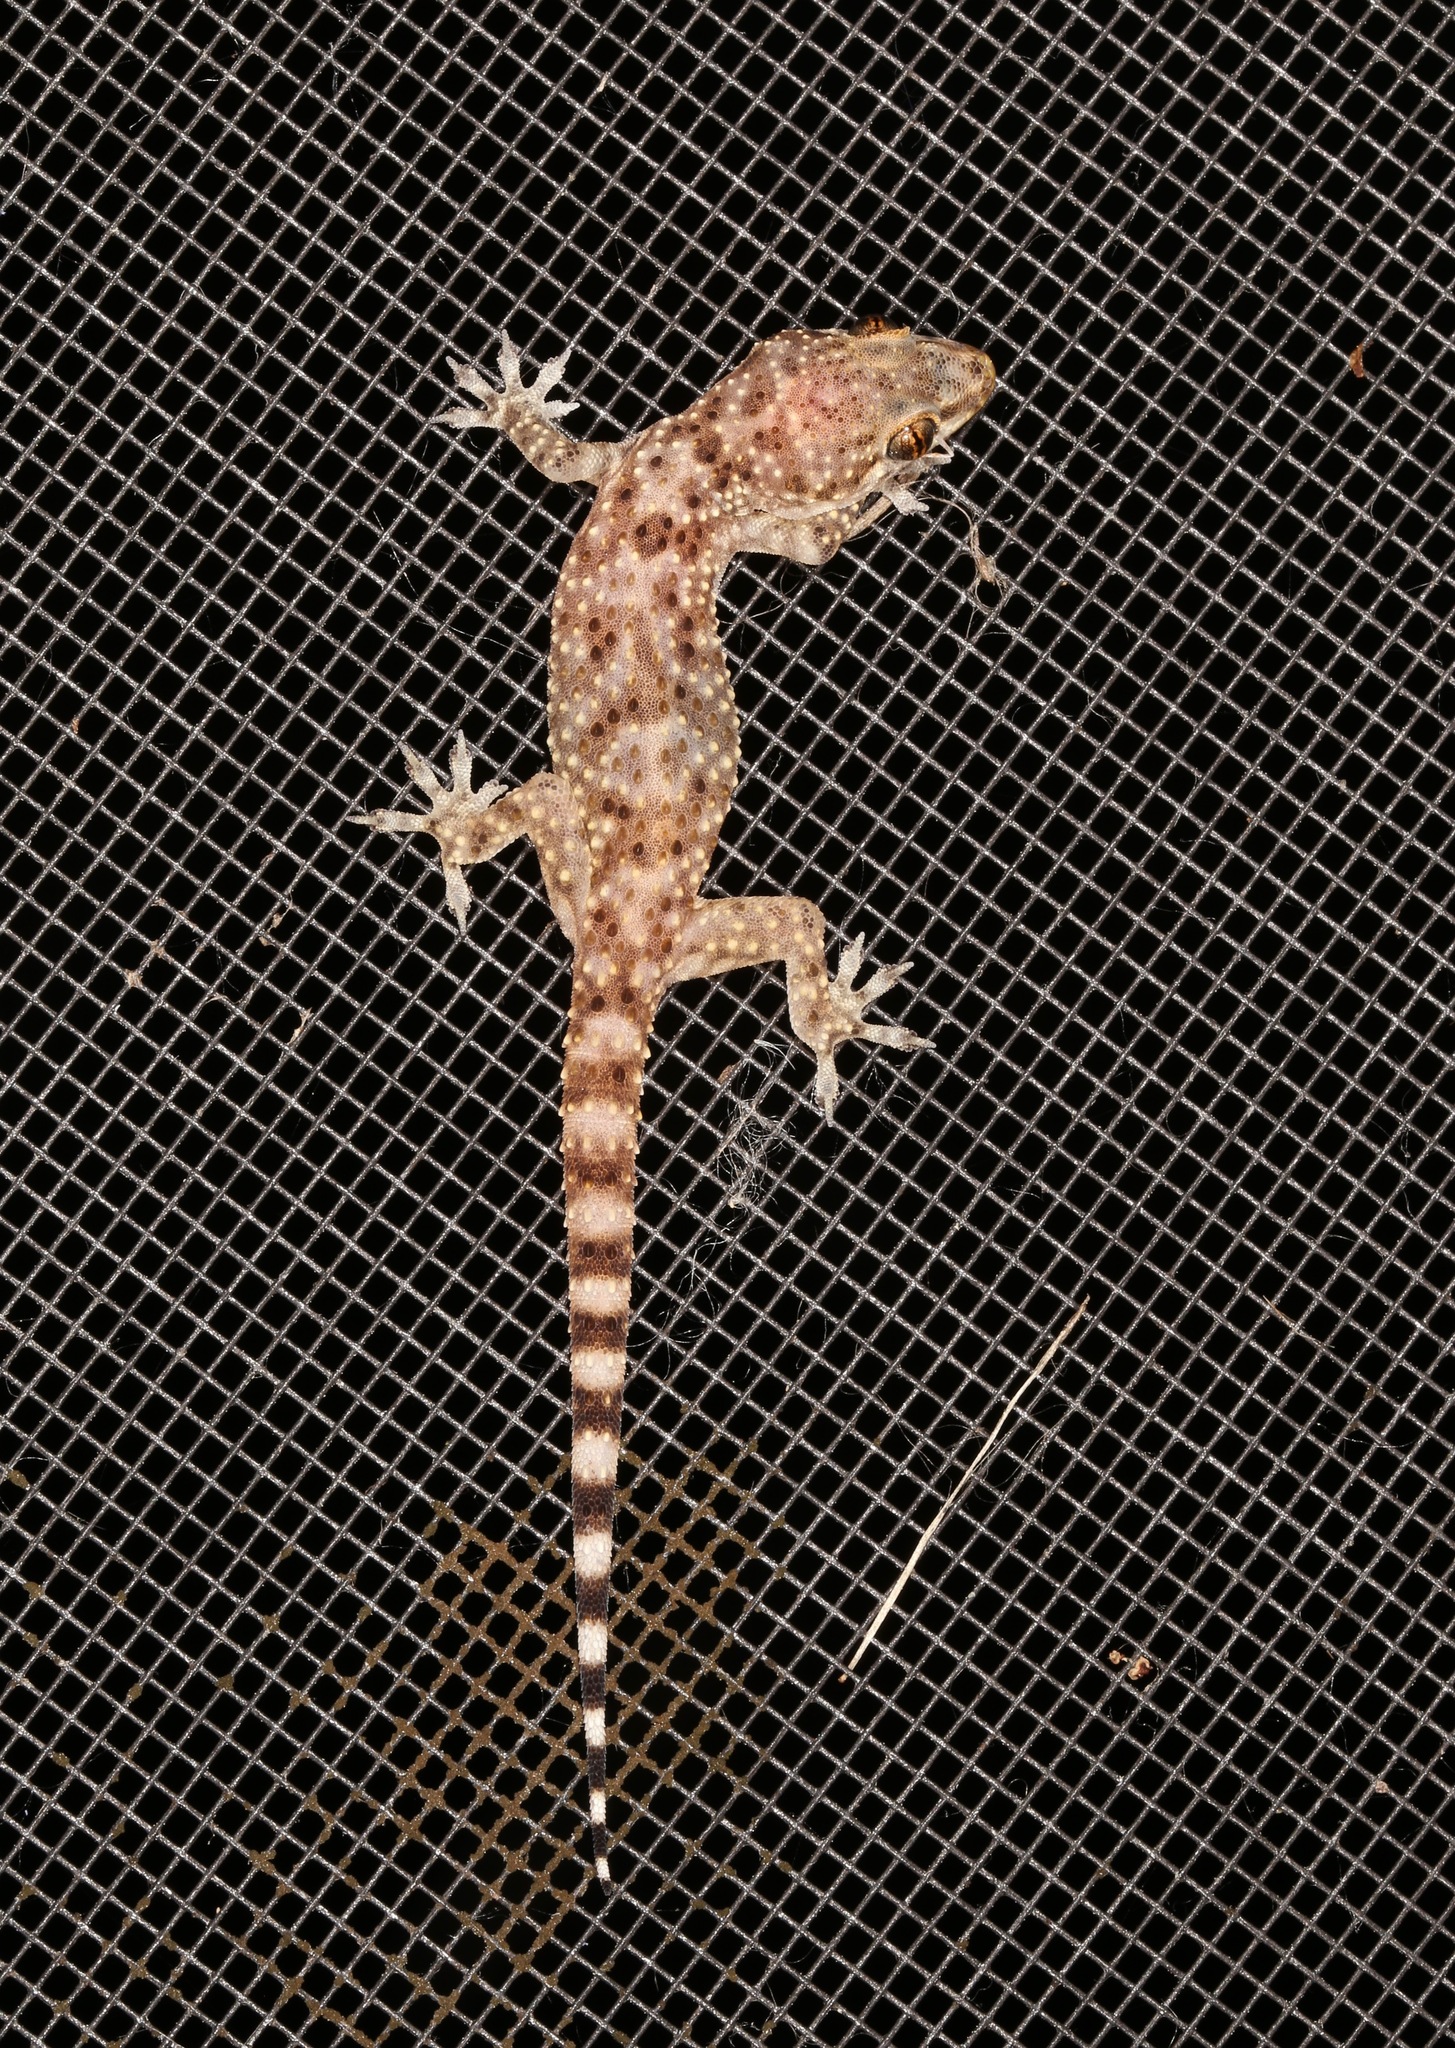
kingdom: Animalia
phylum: Chordata
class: Squamata
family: Gekkonidae
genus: Hemidactylus
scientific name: Hemidactylus turcicus
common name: Turkish gecko
